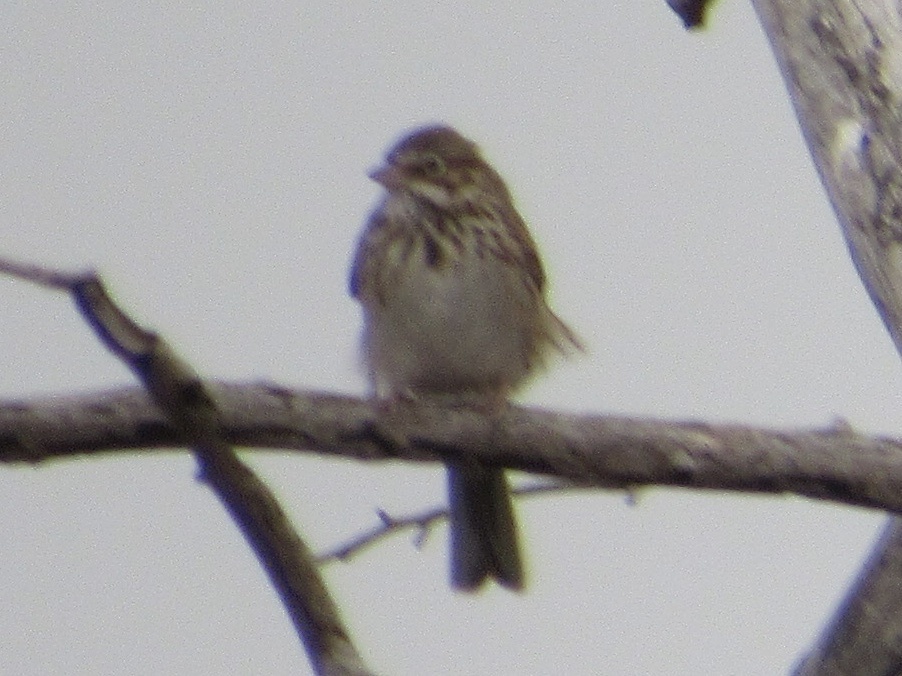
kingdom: Animalia
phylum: Chordata
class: Aves
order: Passeriformes
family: Passerellidae
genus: Pooecetes
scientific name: Pooecetes gramineus
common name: Vesper sparrow
